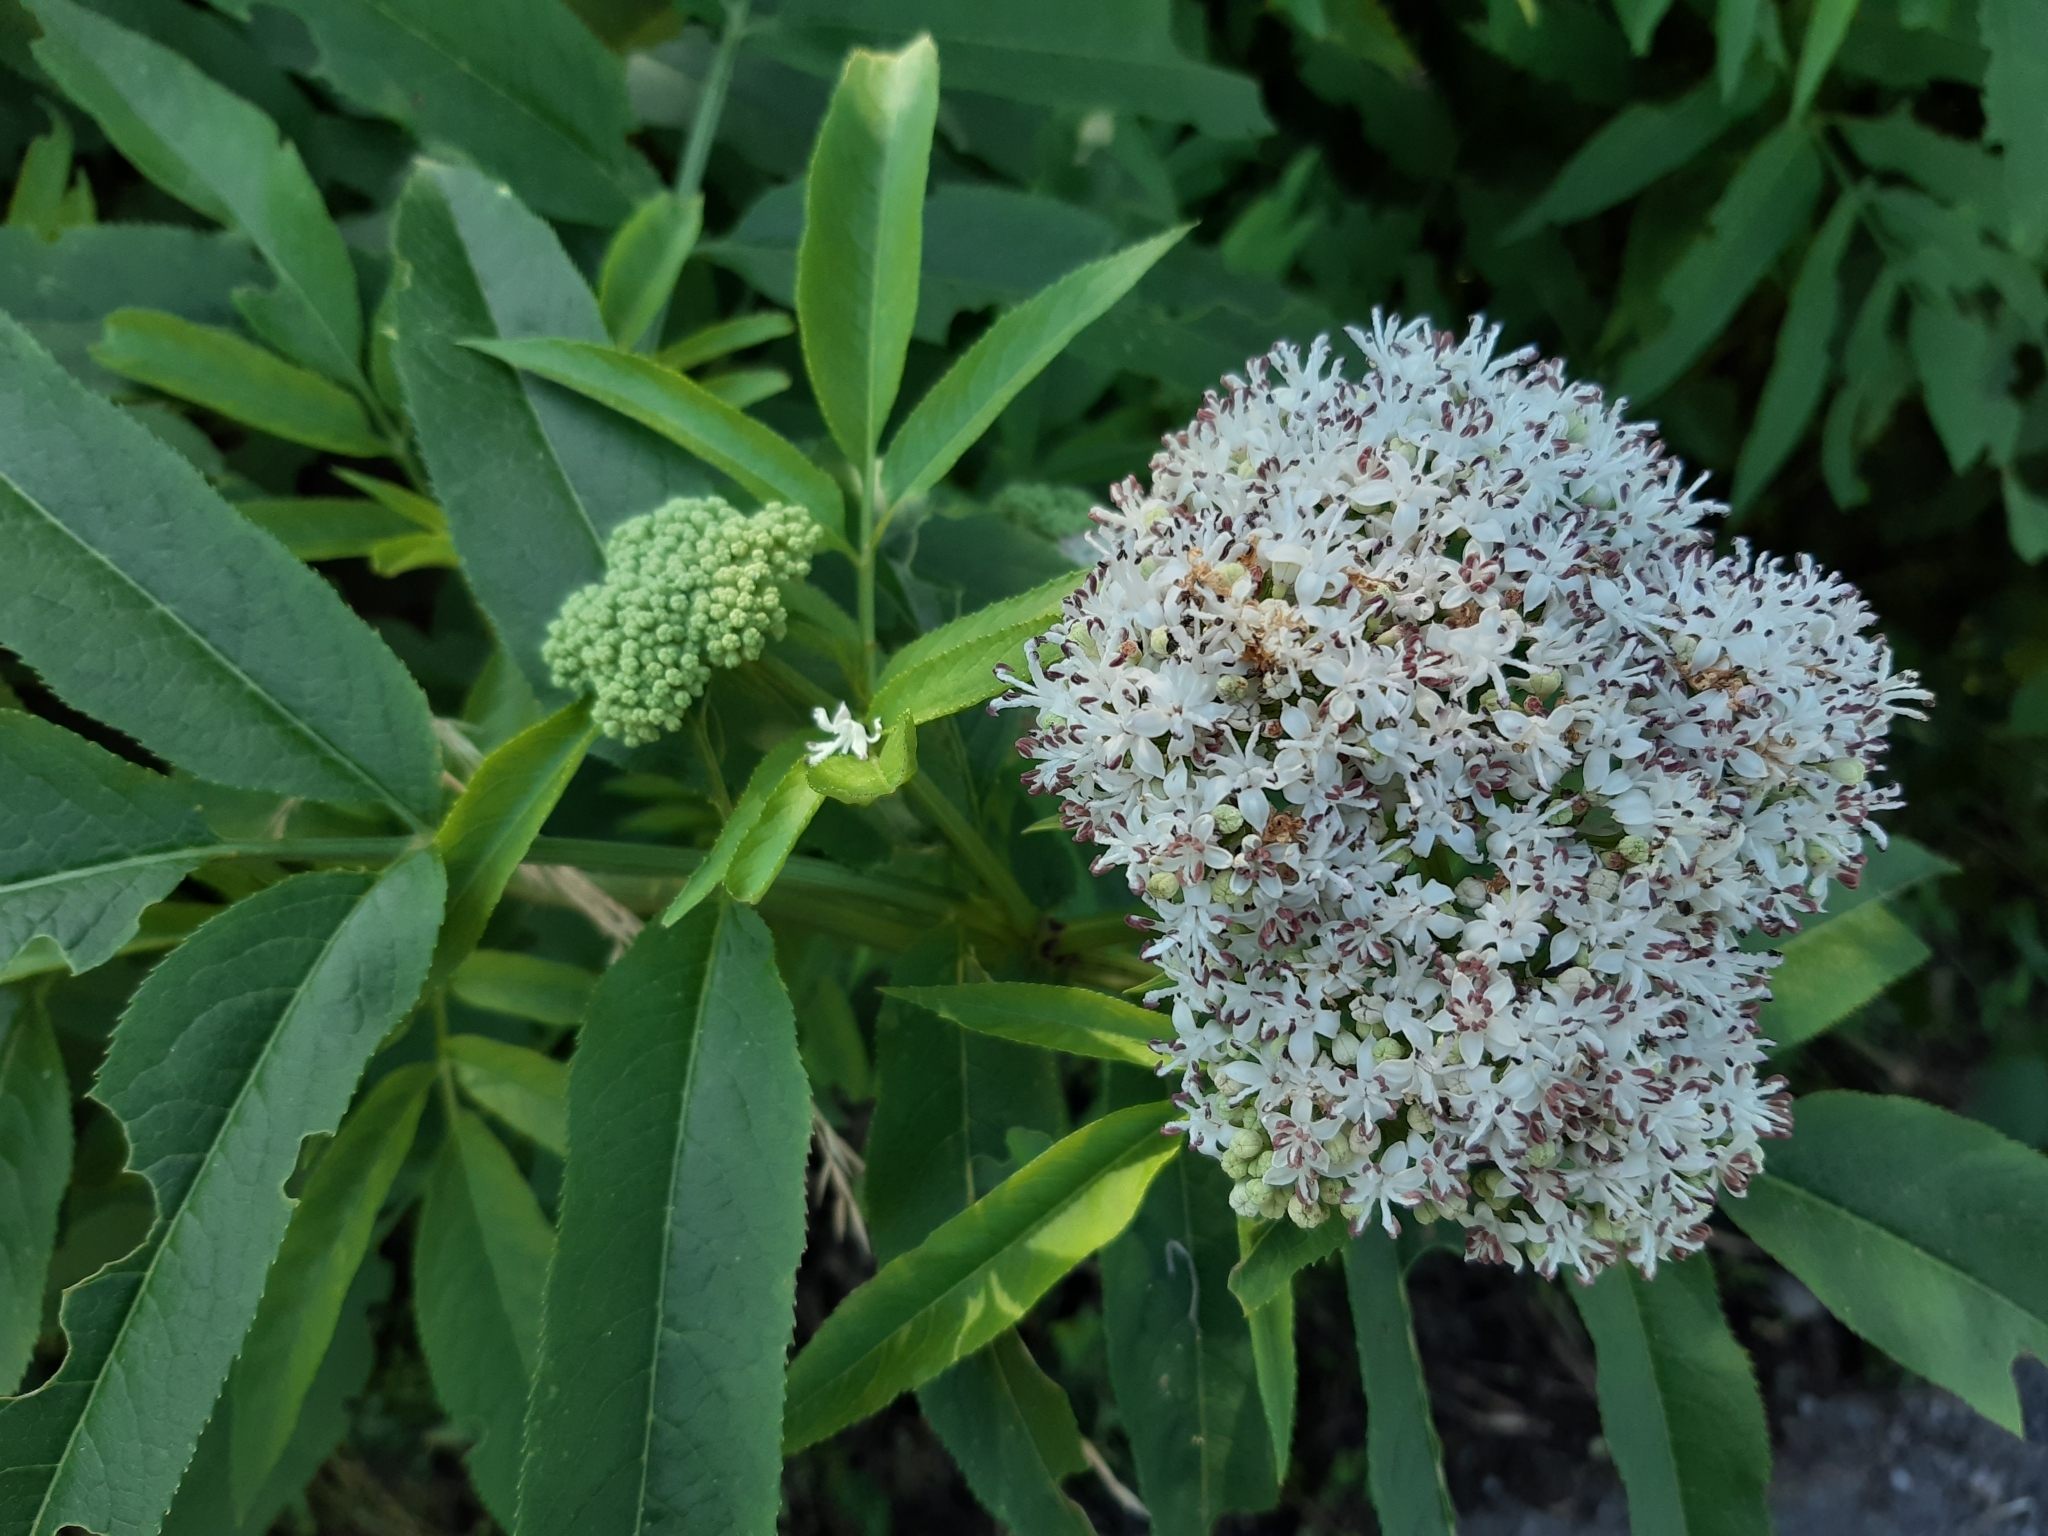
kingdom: Plantae
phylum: Tracheophyta
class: Magnoliopsida
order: Dipsacales
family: Viburnaceae
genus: Sambucus
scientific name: Sambucus ebulus
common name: Dwarf elder
